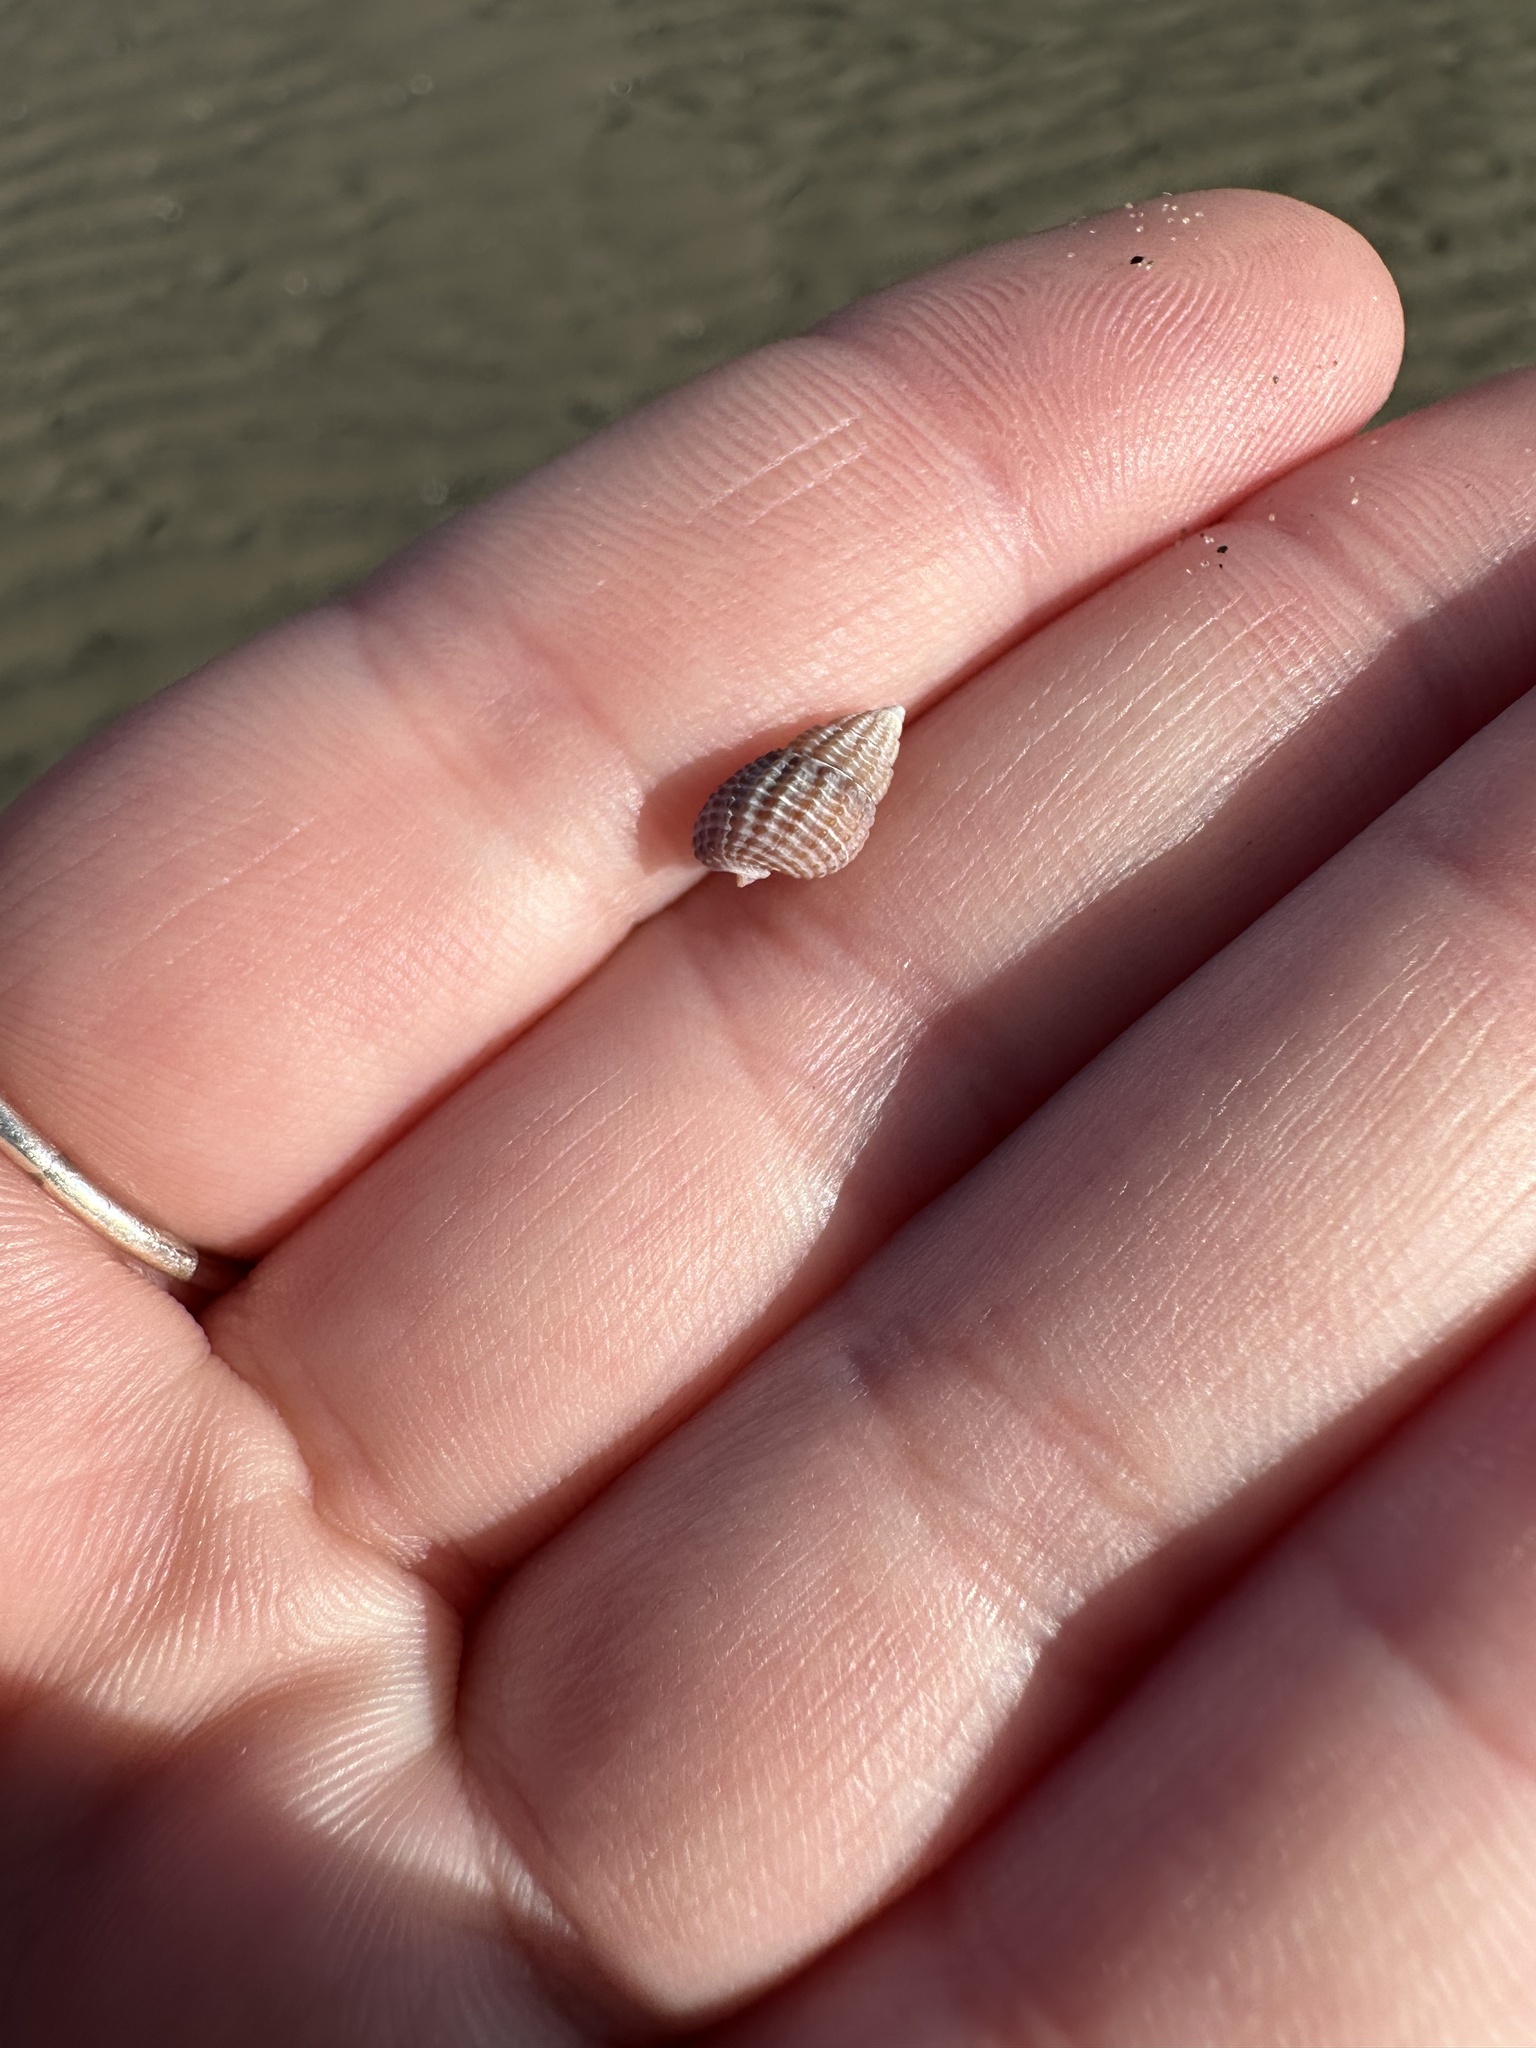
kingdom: Animalia
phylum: Mollusca
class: Gastropoda
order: Neogastropoda
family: Nassariidae
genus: Ilyanassa
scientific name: Ilyanassa trivittata
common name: Three-line mudsnail
